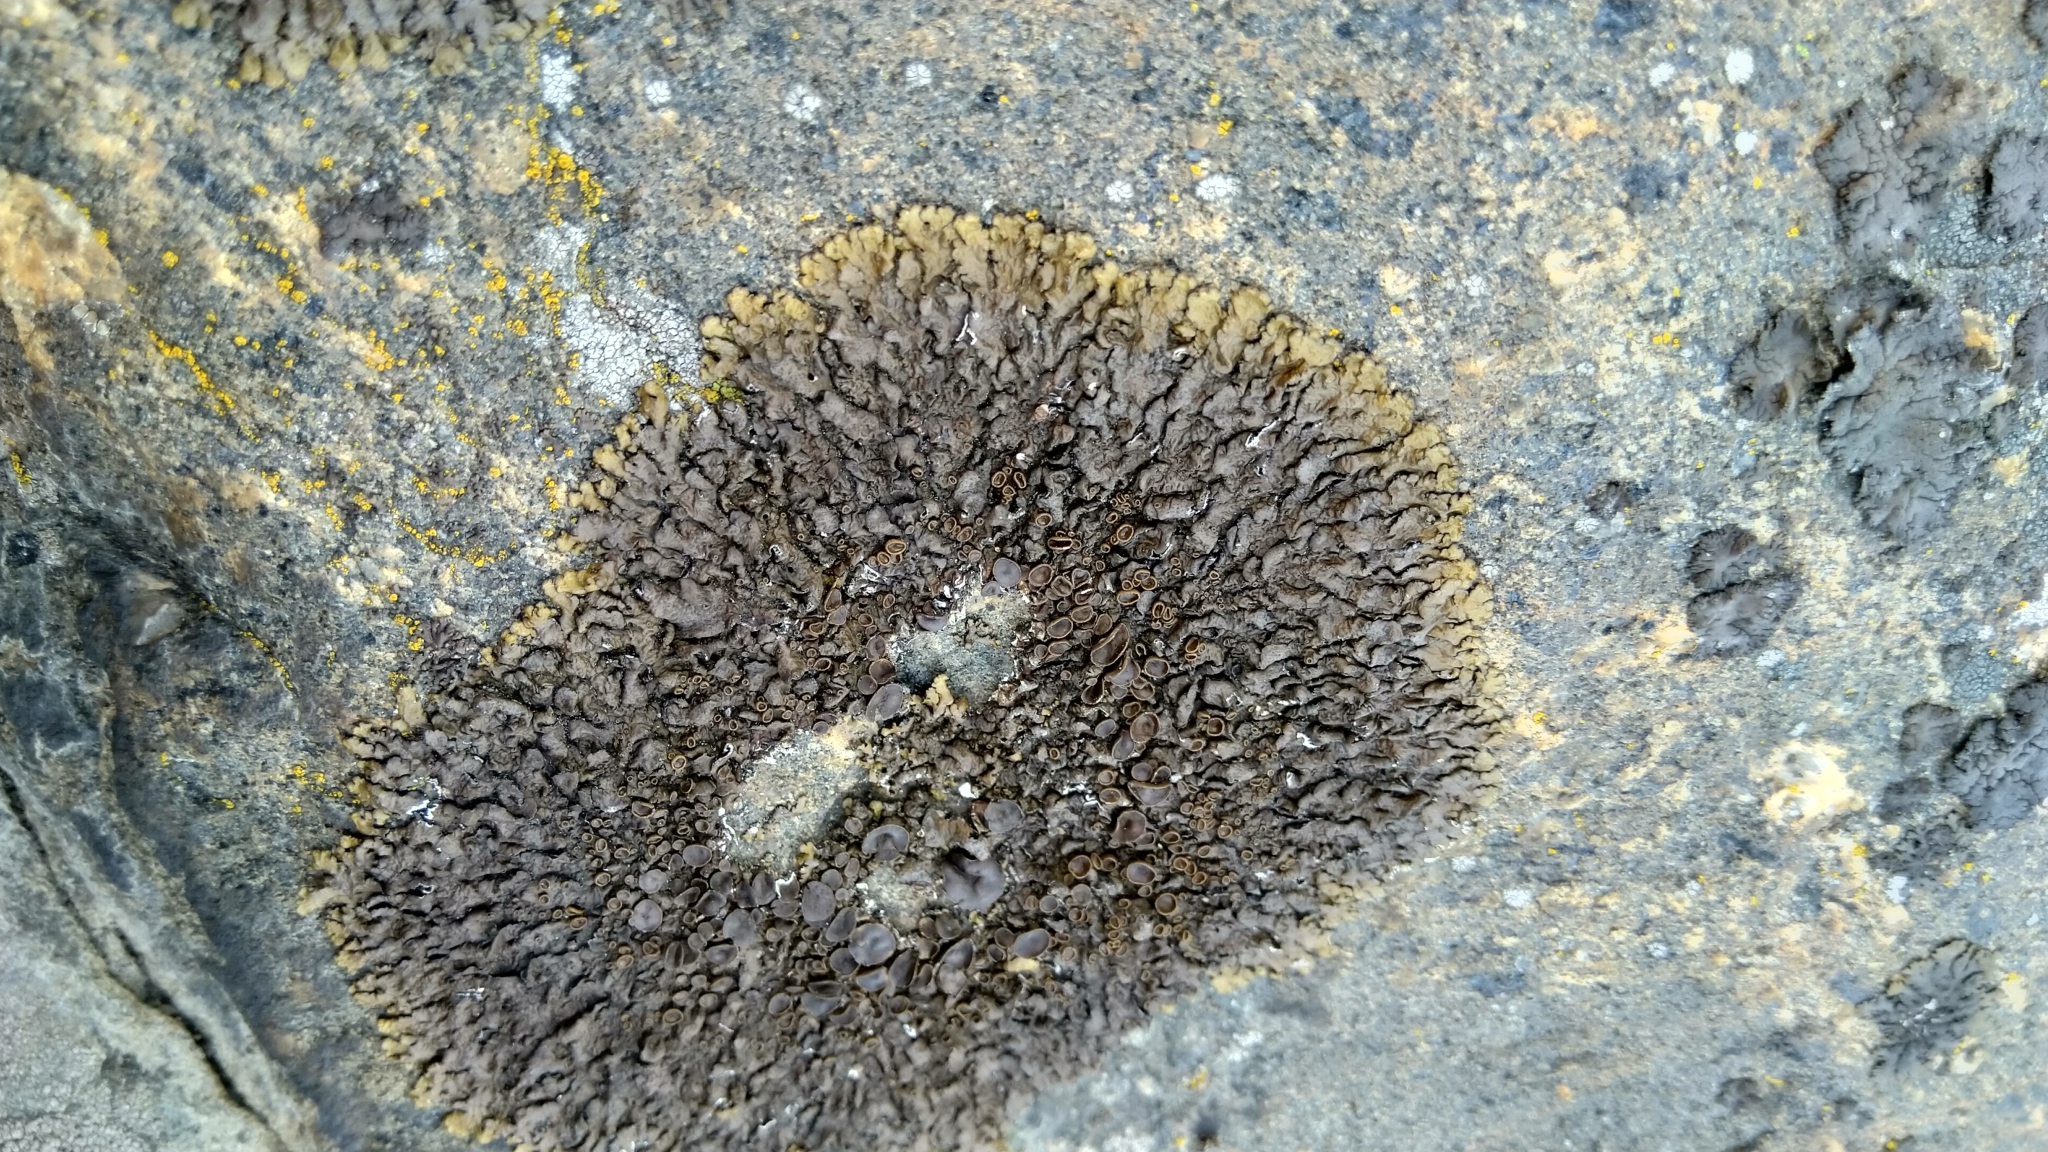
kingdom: Fungi
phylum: Ascomycota
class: Lecanoromycetes
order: Lecanorales
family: Parmeliaceae
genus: Xanthoparmelia
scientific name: Xanthoparmelia pulla
